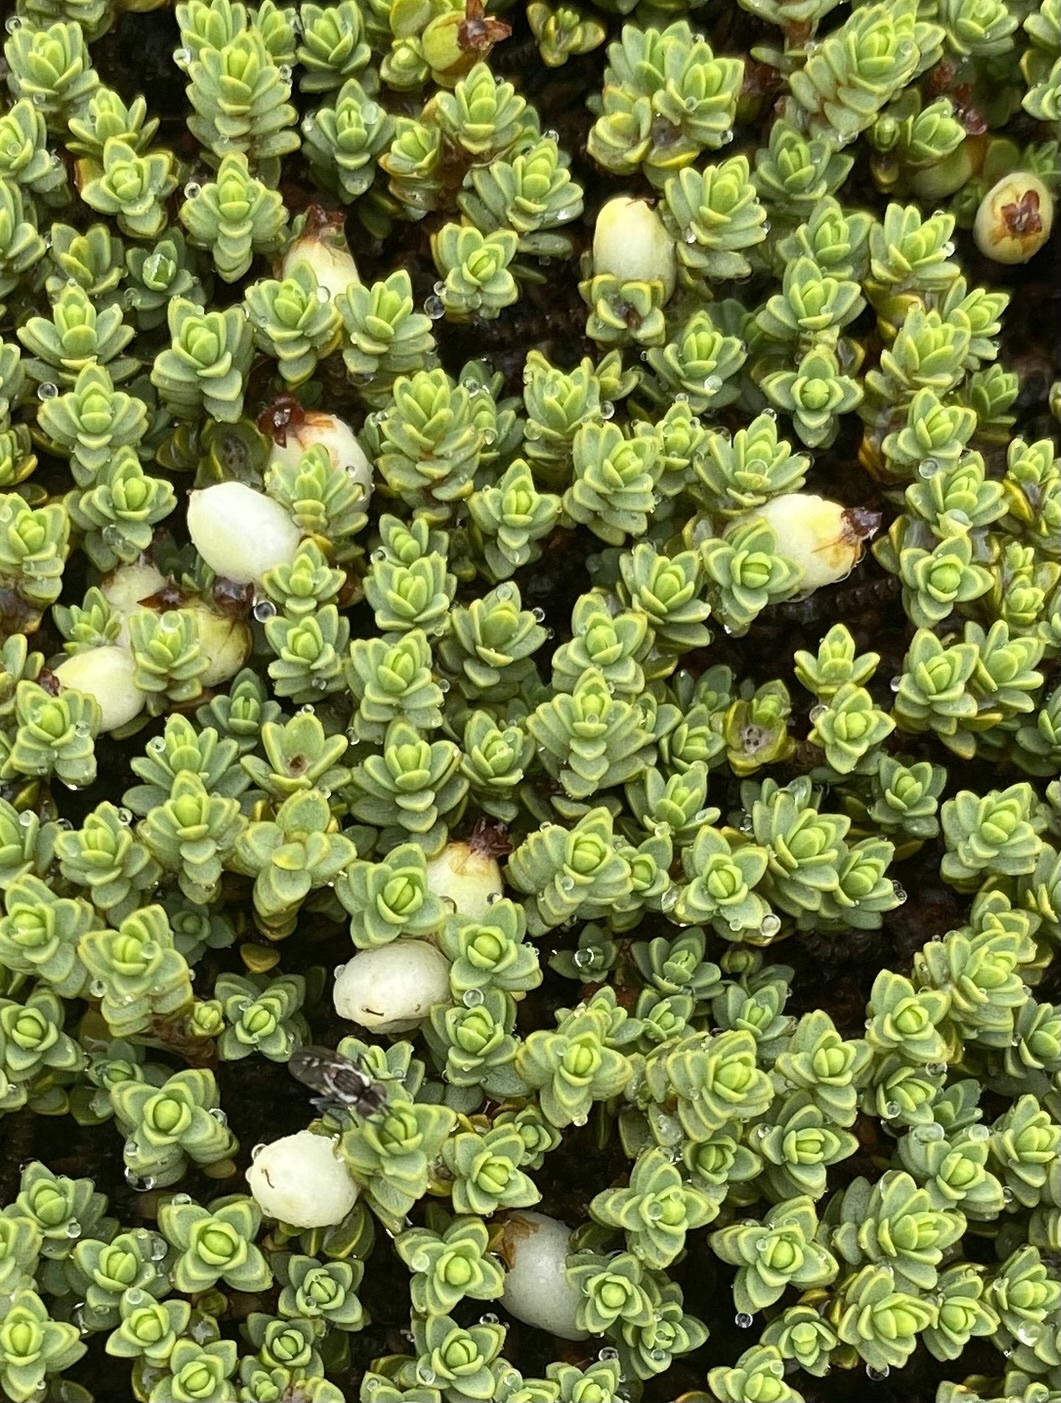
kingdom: Plantae
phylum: Tracheophyta
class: Magnoliopsida
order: Malvales
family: Thymelaeaceae
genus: Pimelea
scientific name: Pimelea prostrata
